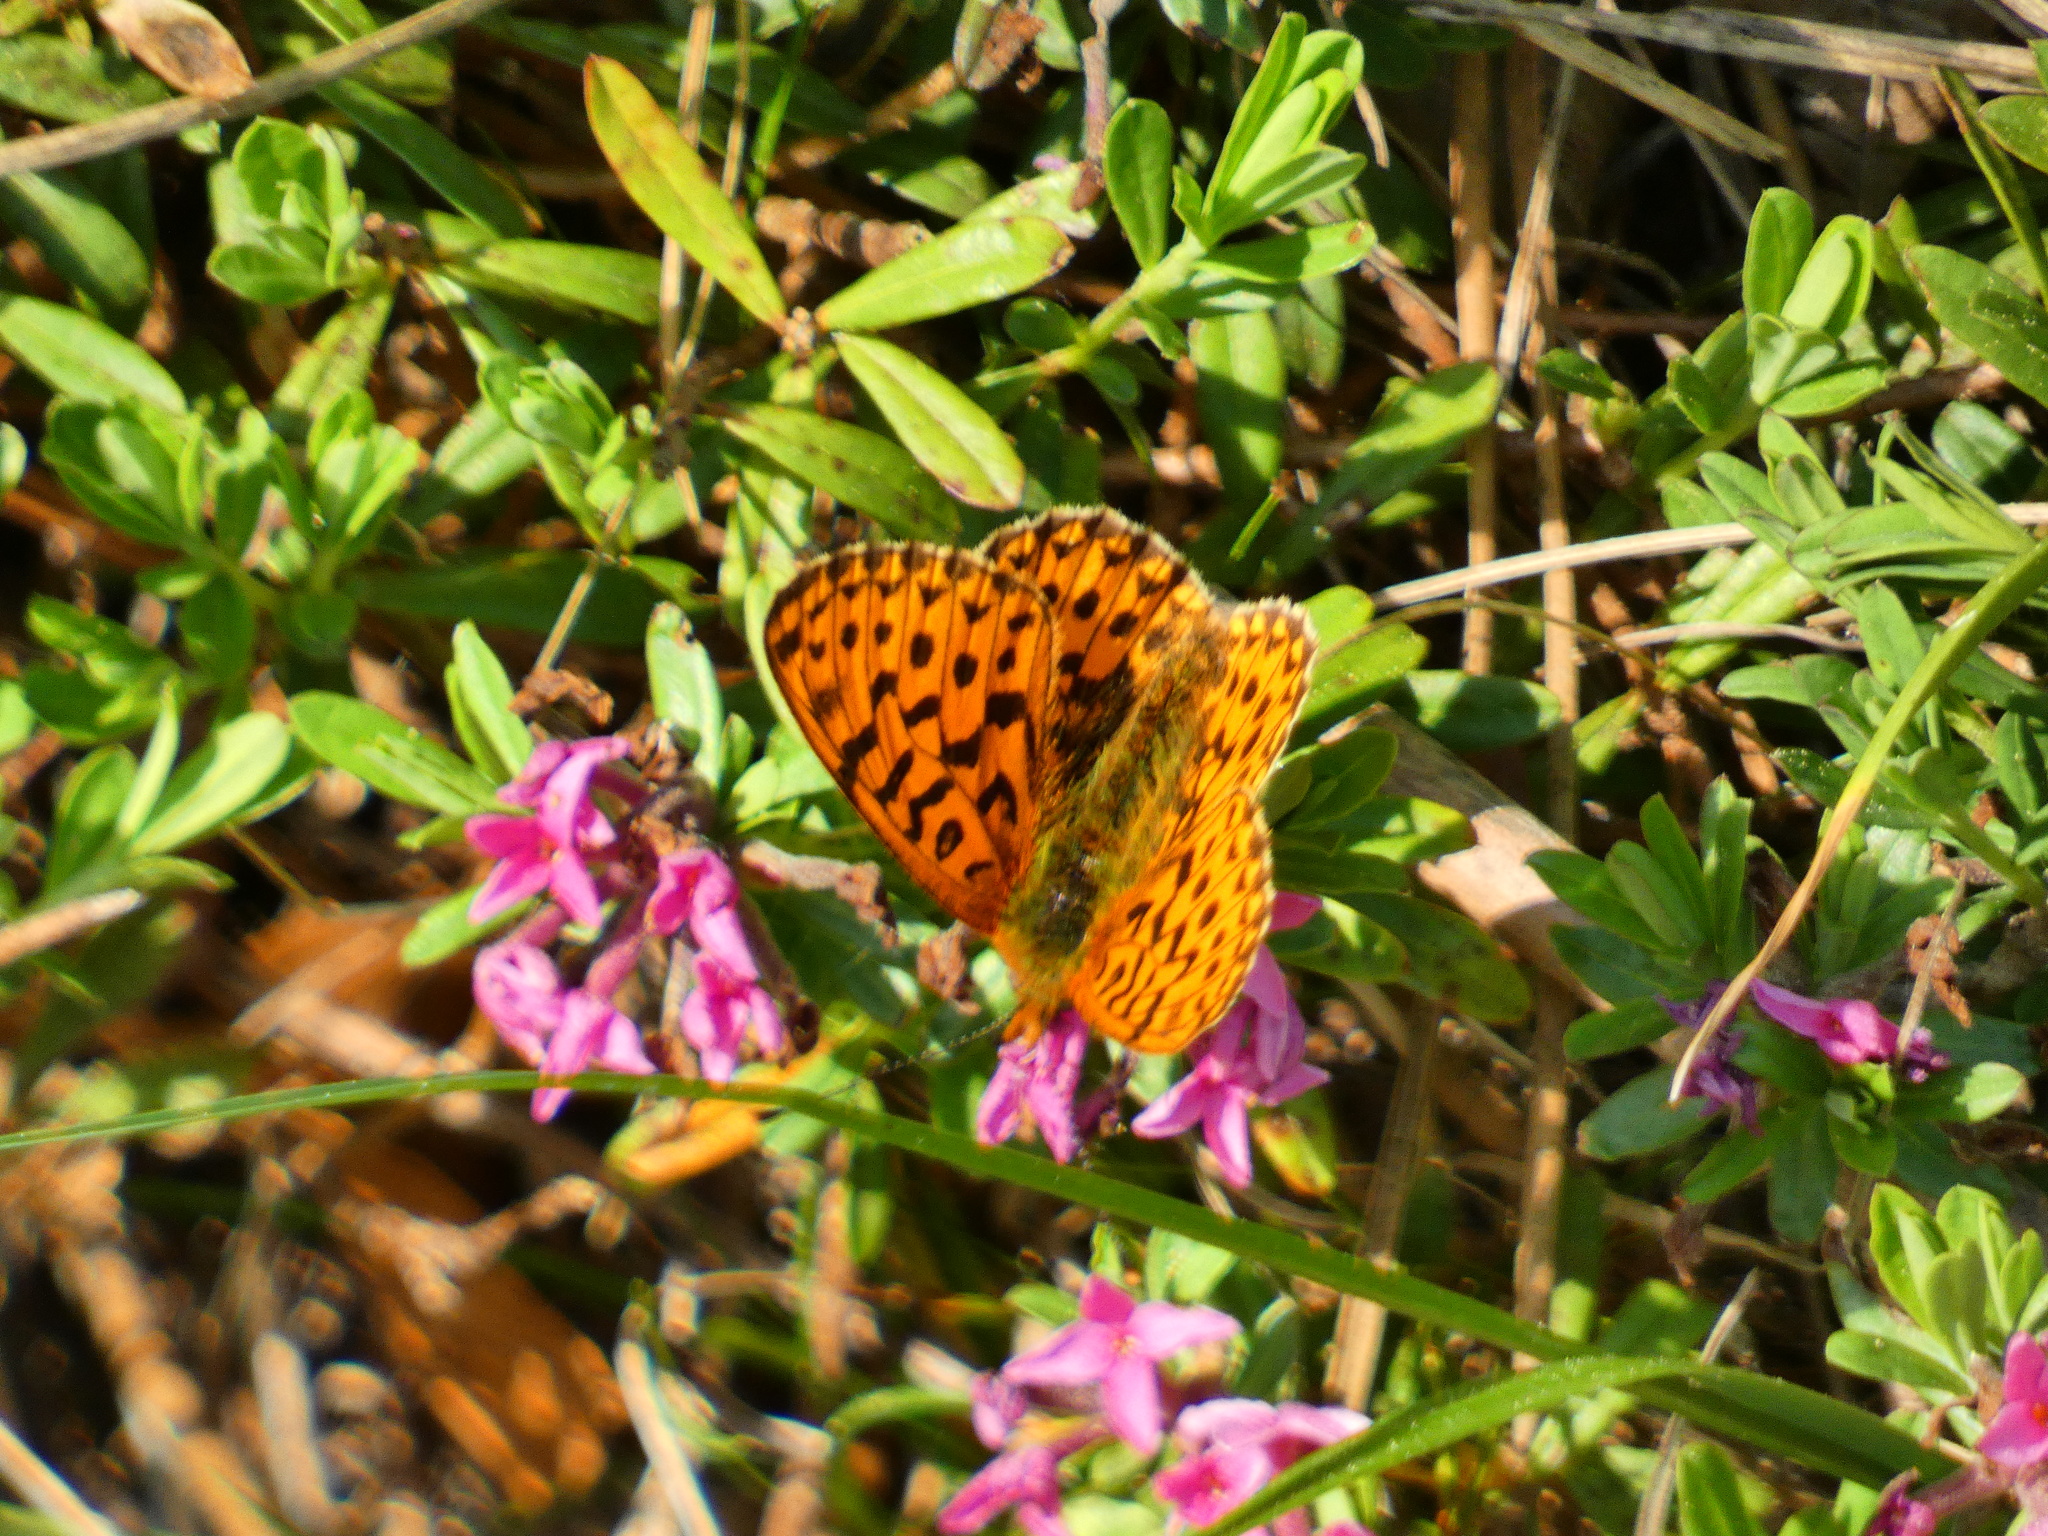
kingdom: Animalia
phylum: Arthropoda
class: Insecta
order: Lepidoptera
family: Nymphalidae
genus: Clossiana
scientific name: Clossiana euphrosyne
